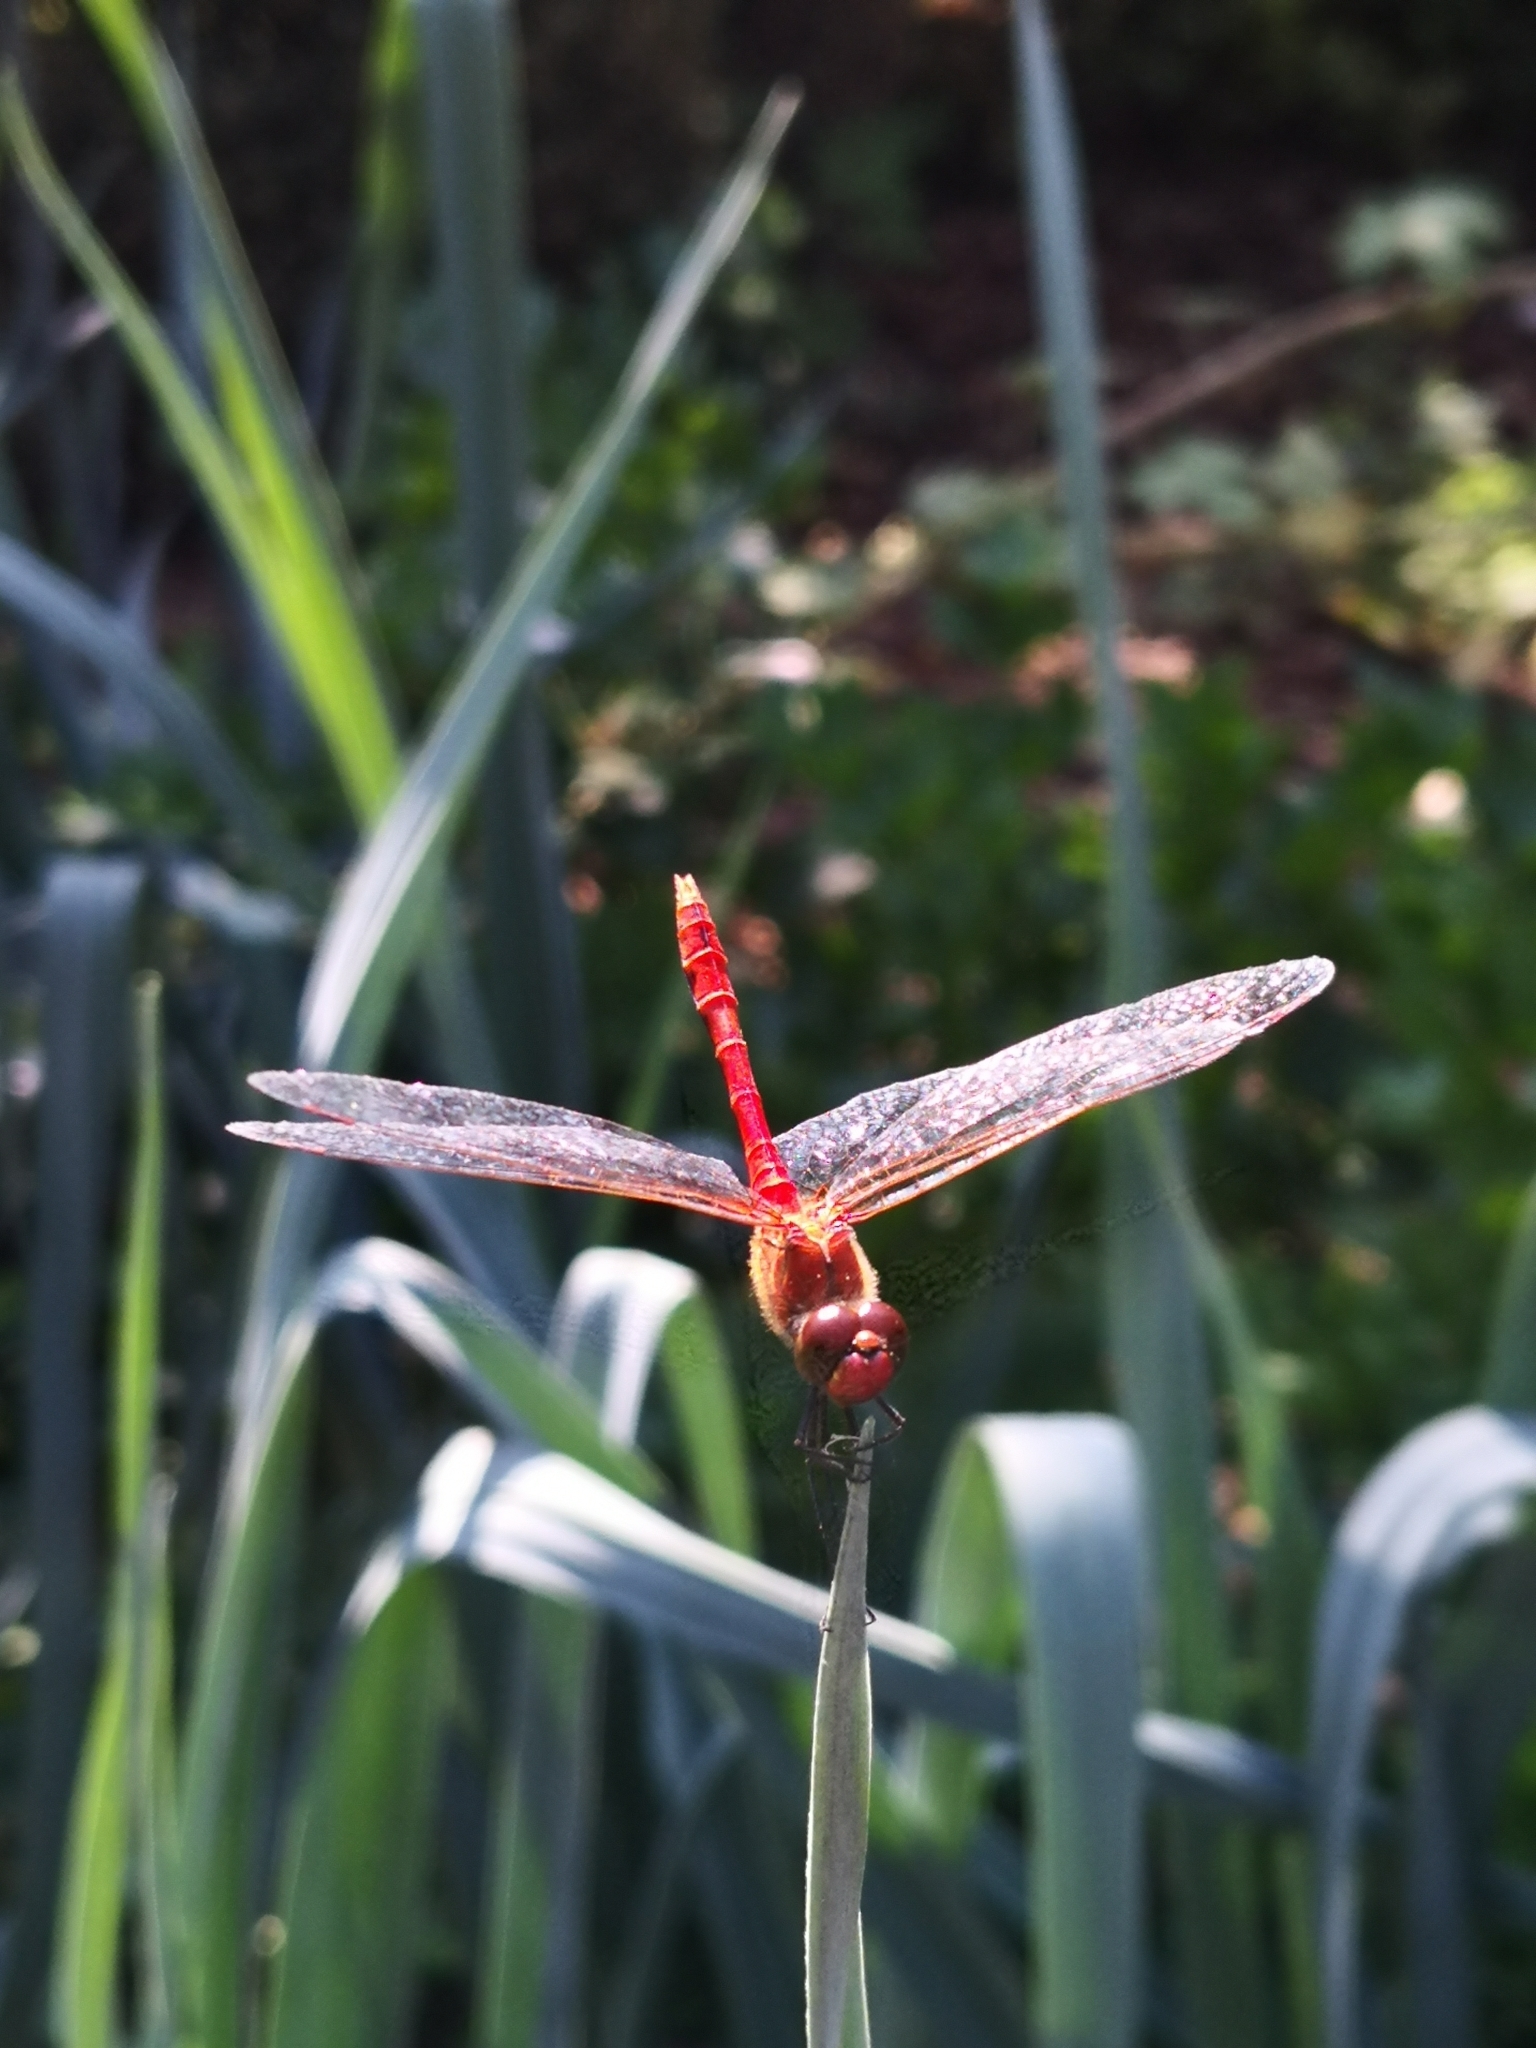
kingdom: Animalia
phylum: Arthropoda
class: Insecta
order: Odonata
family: Libellulidae
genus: Sympetrum
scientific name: Sympetrum sanguineum
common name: Ruddy darter
